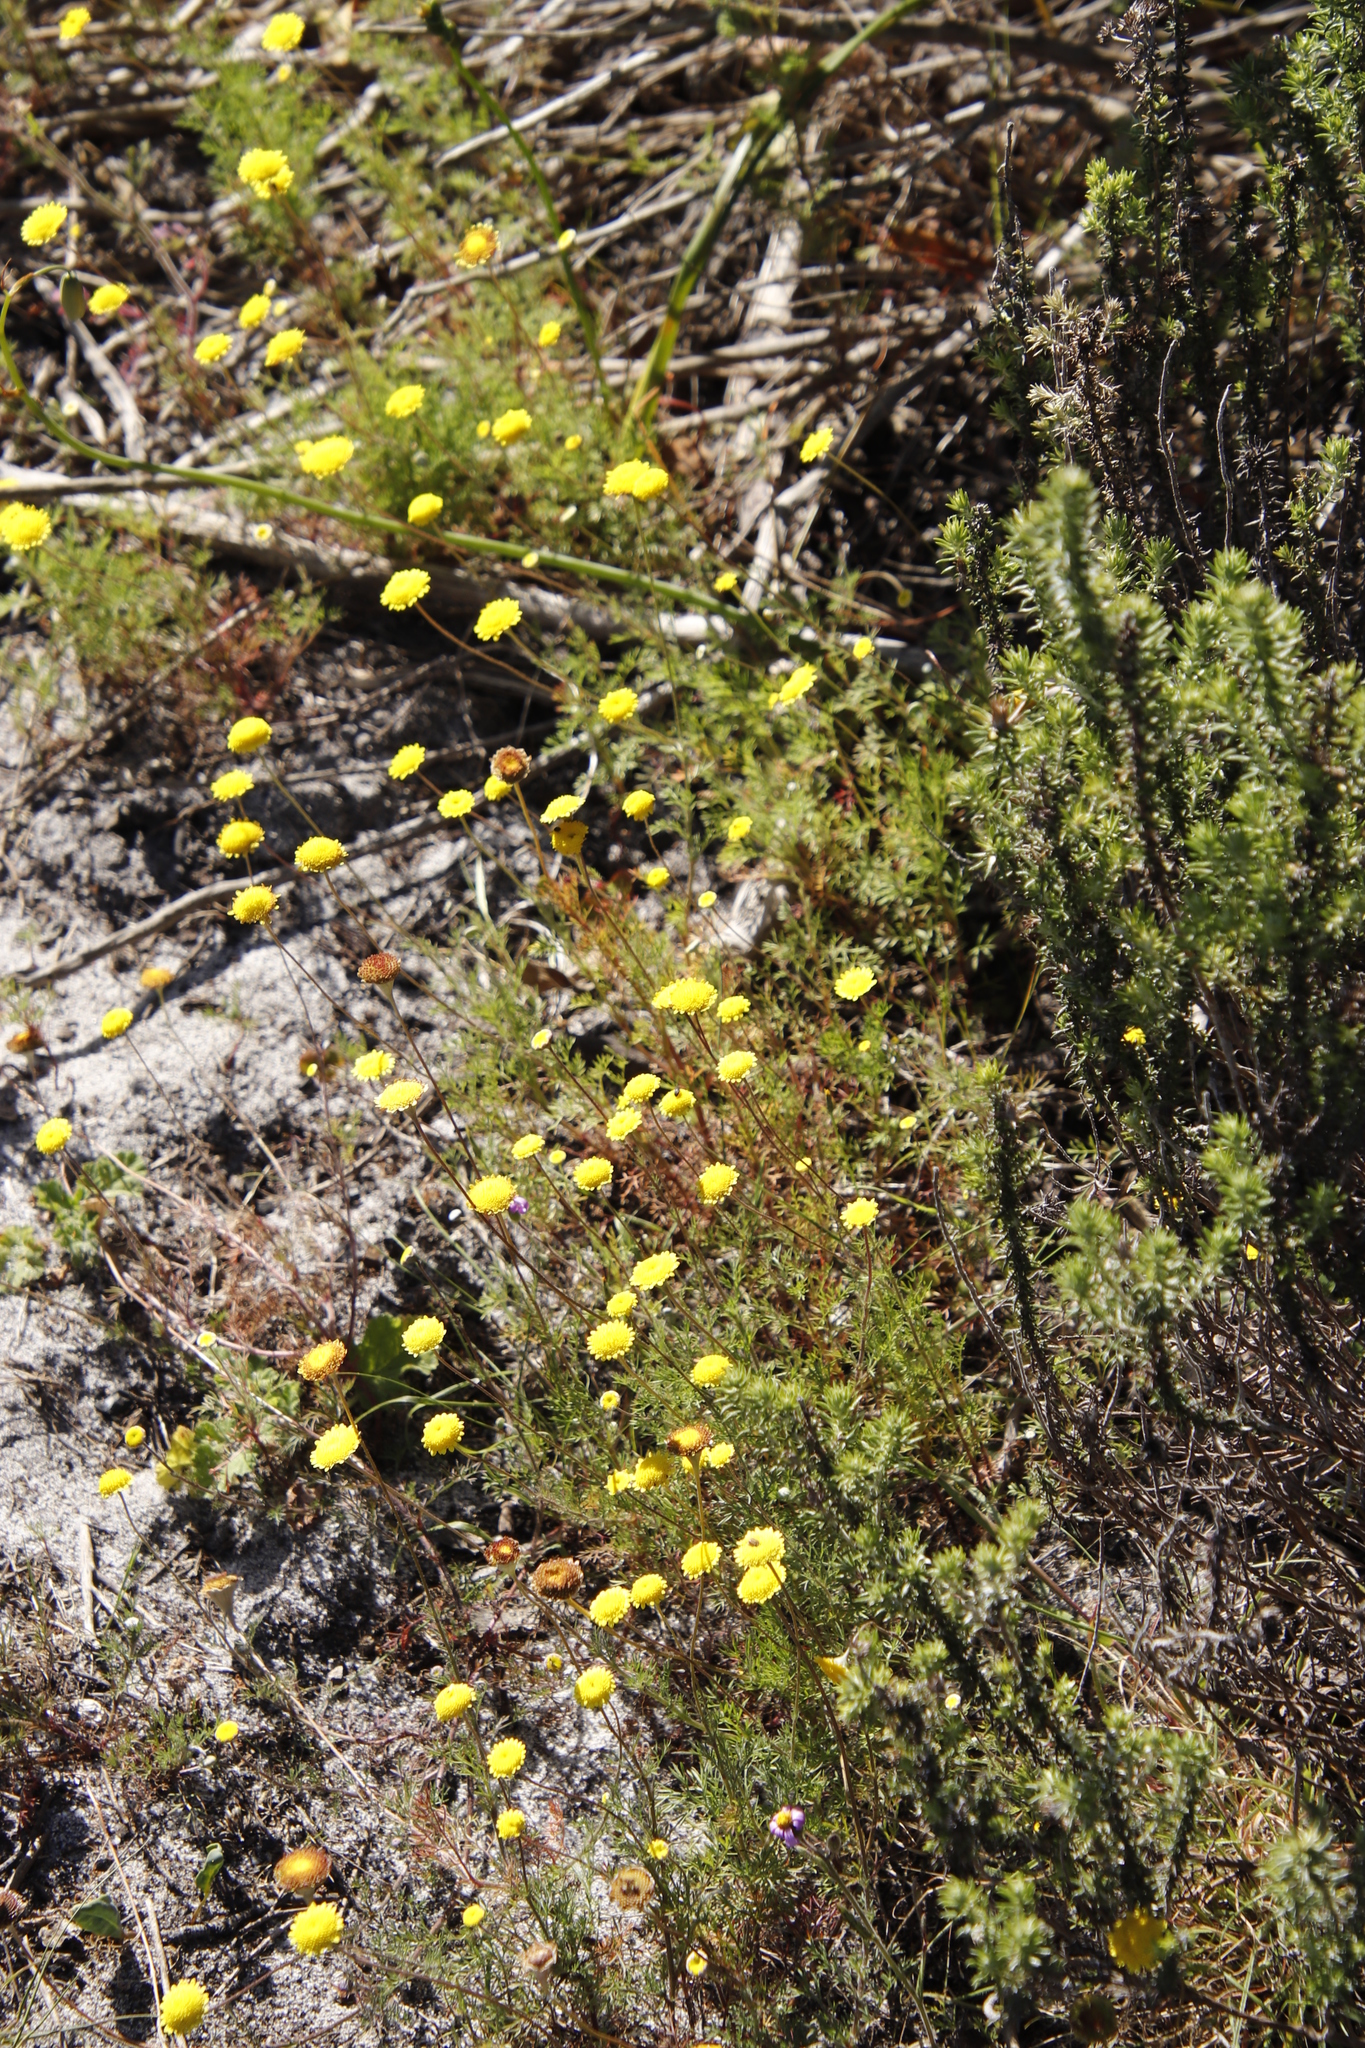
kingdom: Plantae
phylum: Tracheophyta
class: Magnoliopsida
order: Asterales
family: Asteraceae
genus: Cotula
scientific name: Cotula pruinosa
